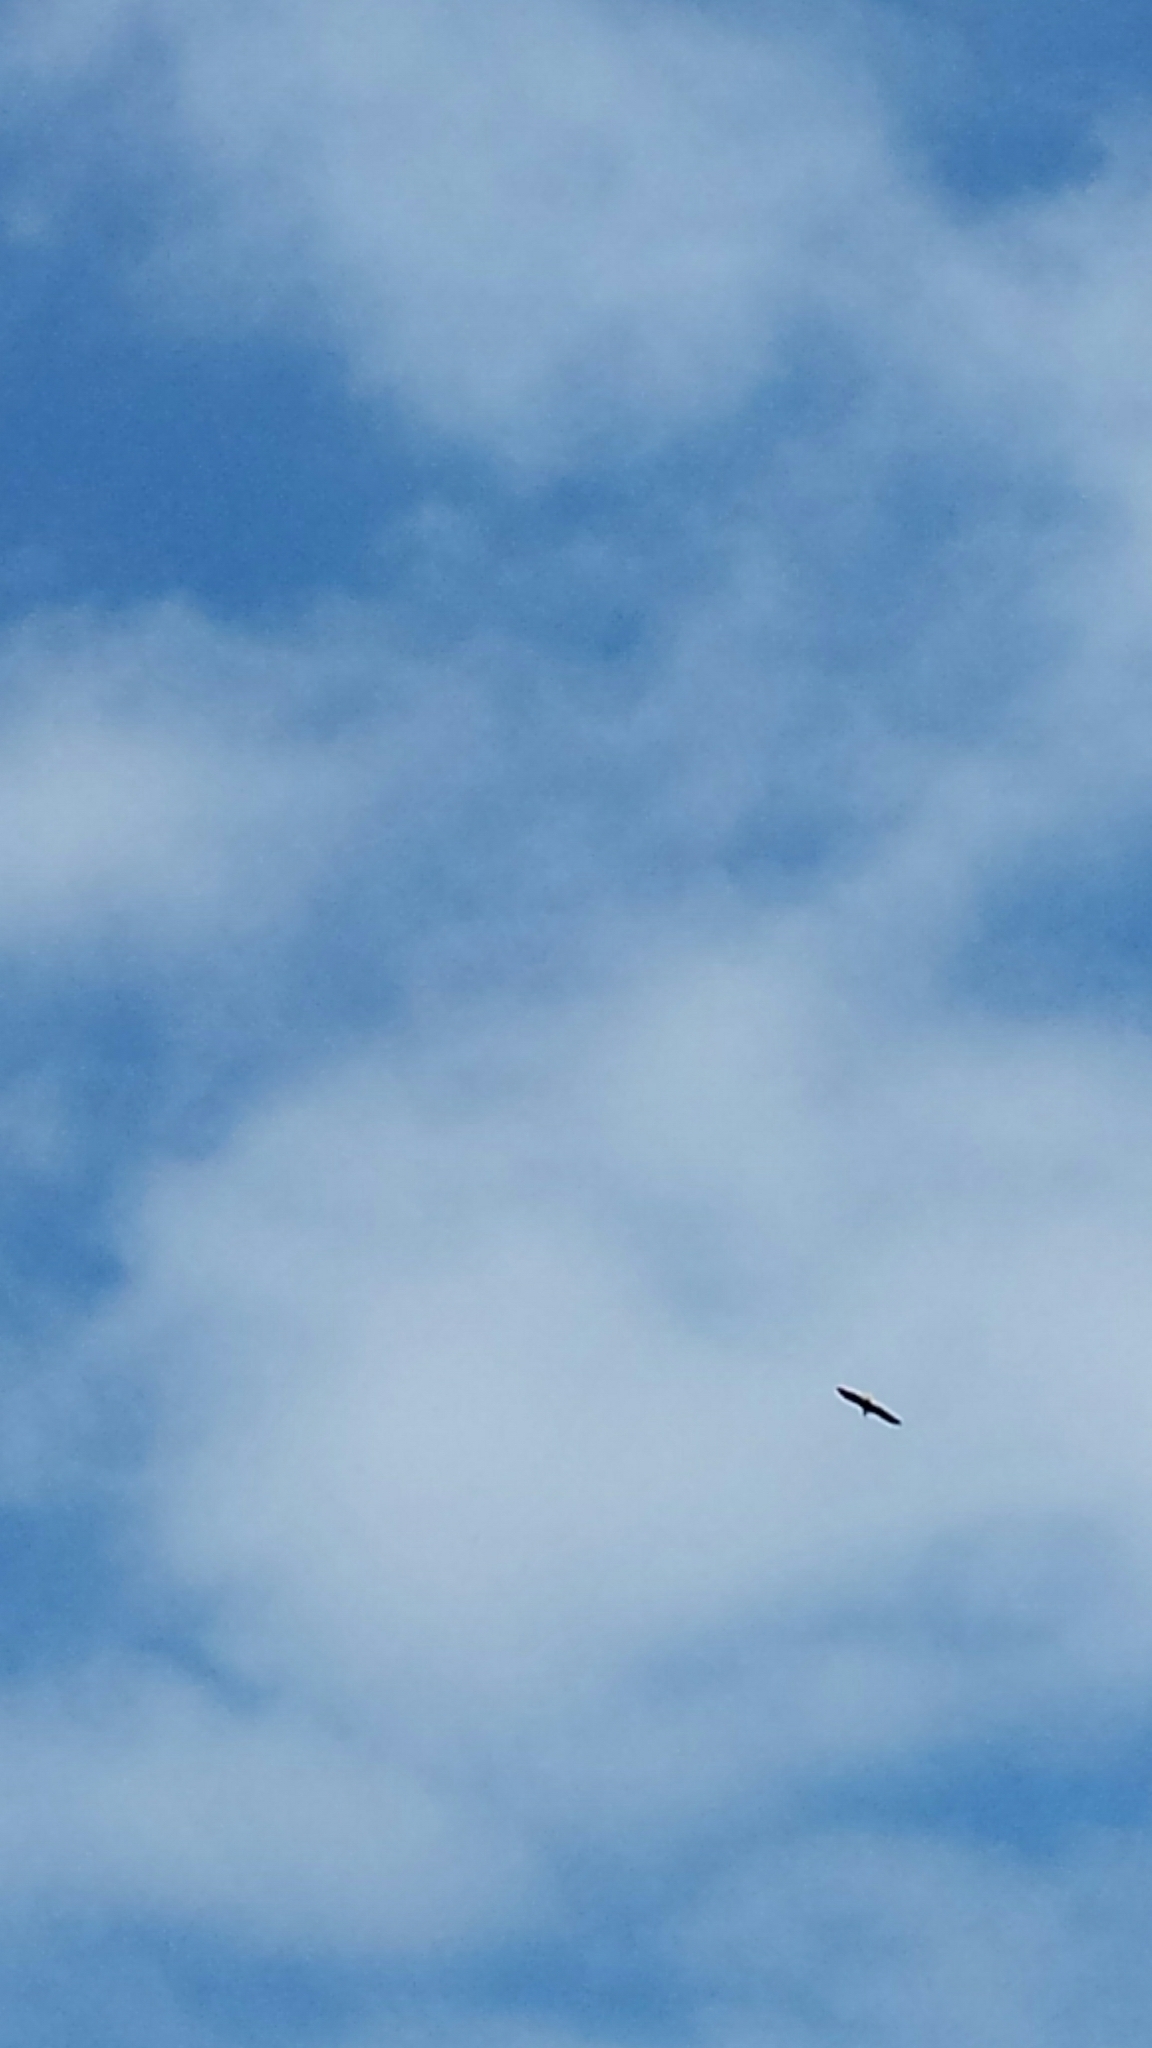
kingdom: Animalia
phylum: Chordata
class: Aves
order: Accipitriformes
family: Accipitridae
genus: Haliaeetus
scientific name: Haliaeetus leucocephalus
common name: Bald eagle
